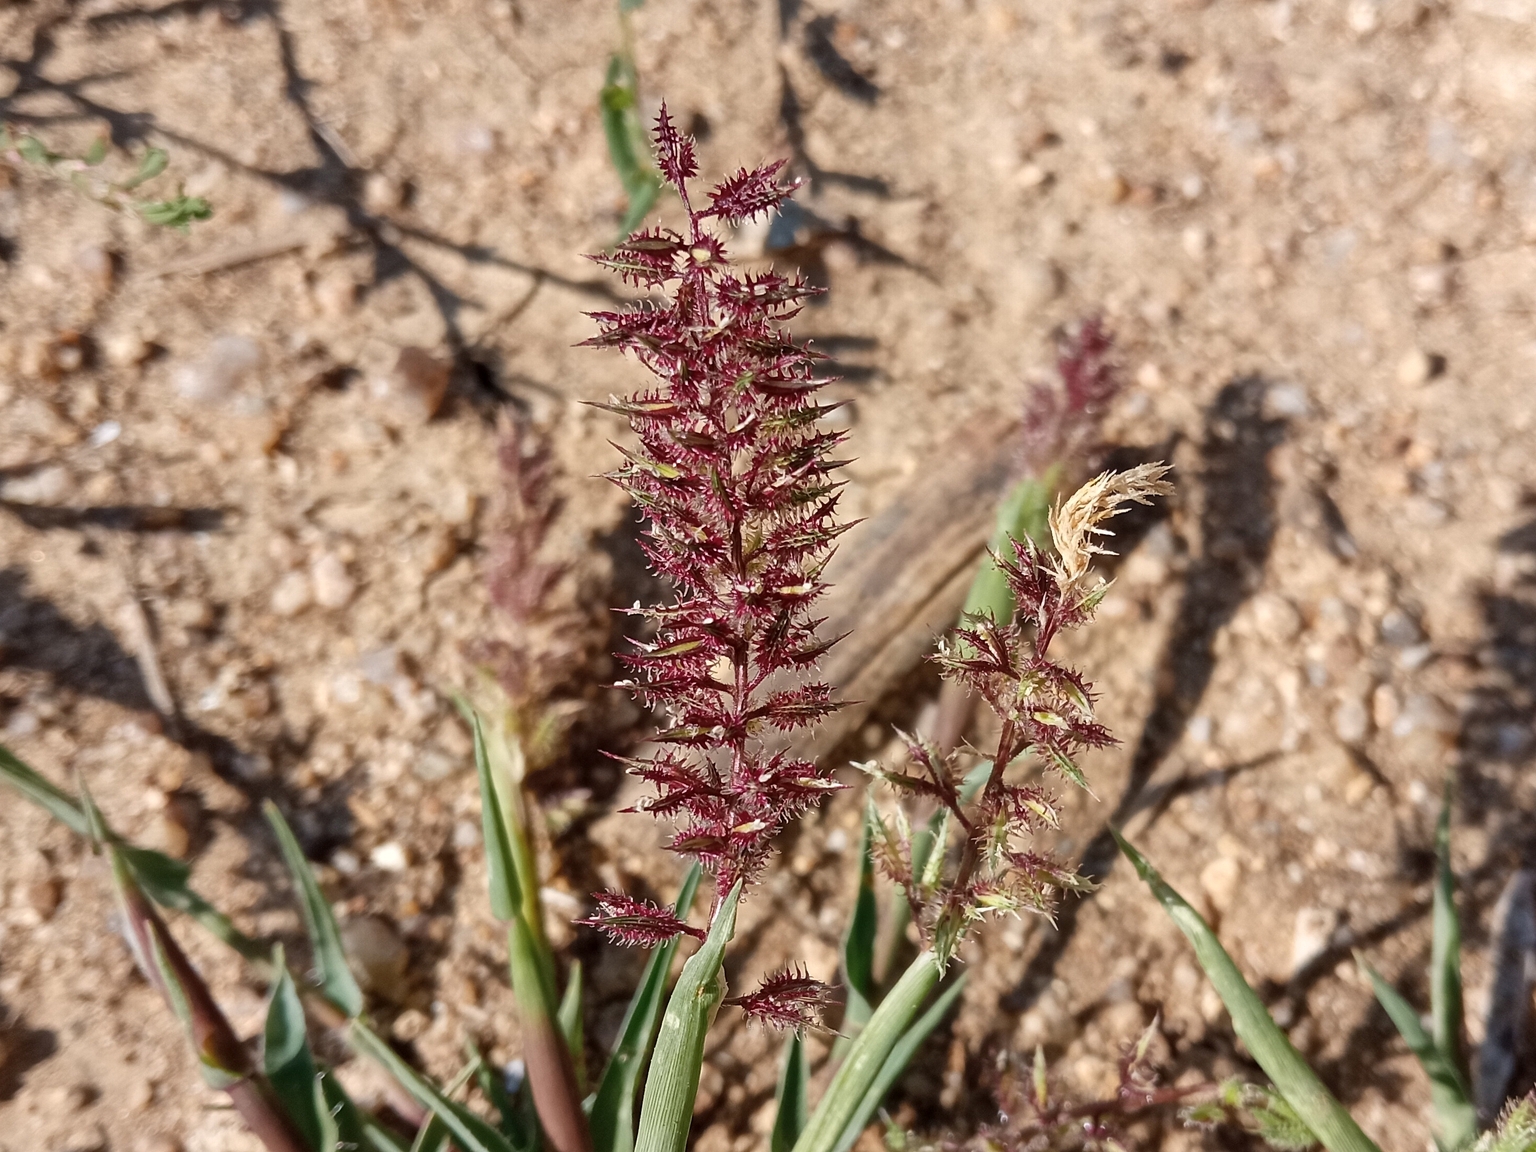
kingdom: Plantae
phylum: Tracheophyta
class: Liliopsida
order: Poales
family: Poaceae
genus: Tragus
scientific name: Tragus racemosus
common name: European bur-grass
